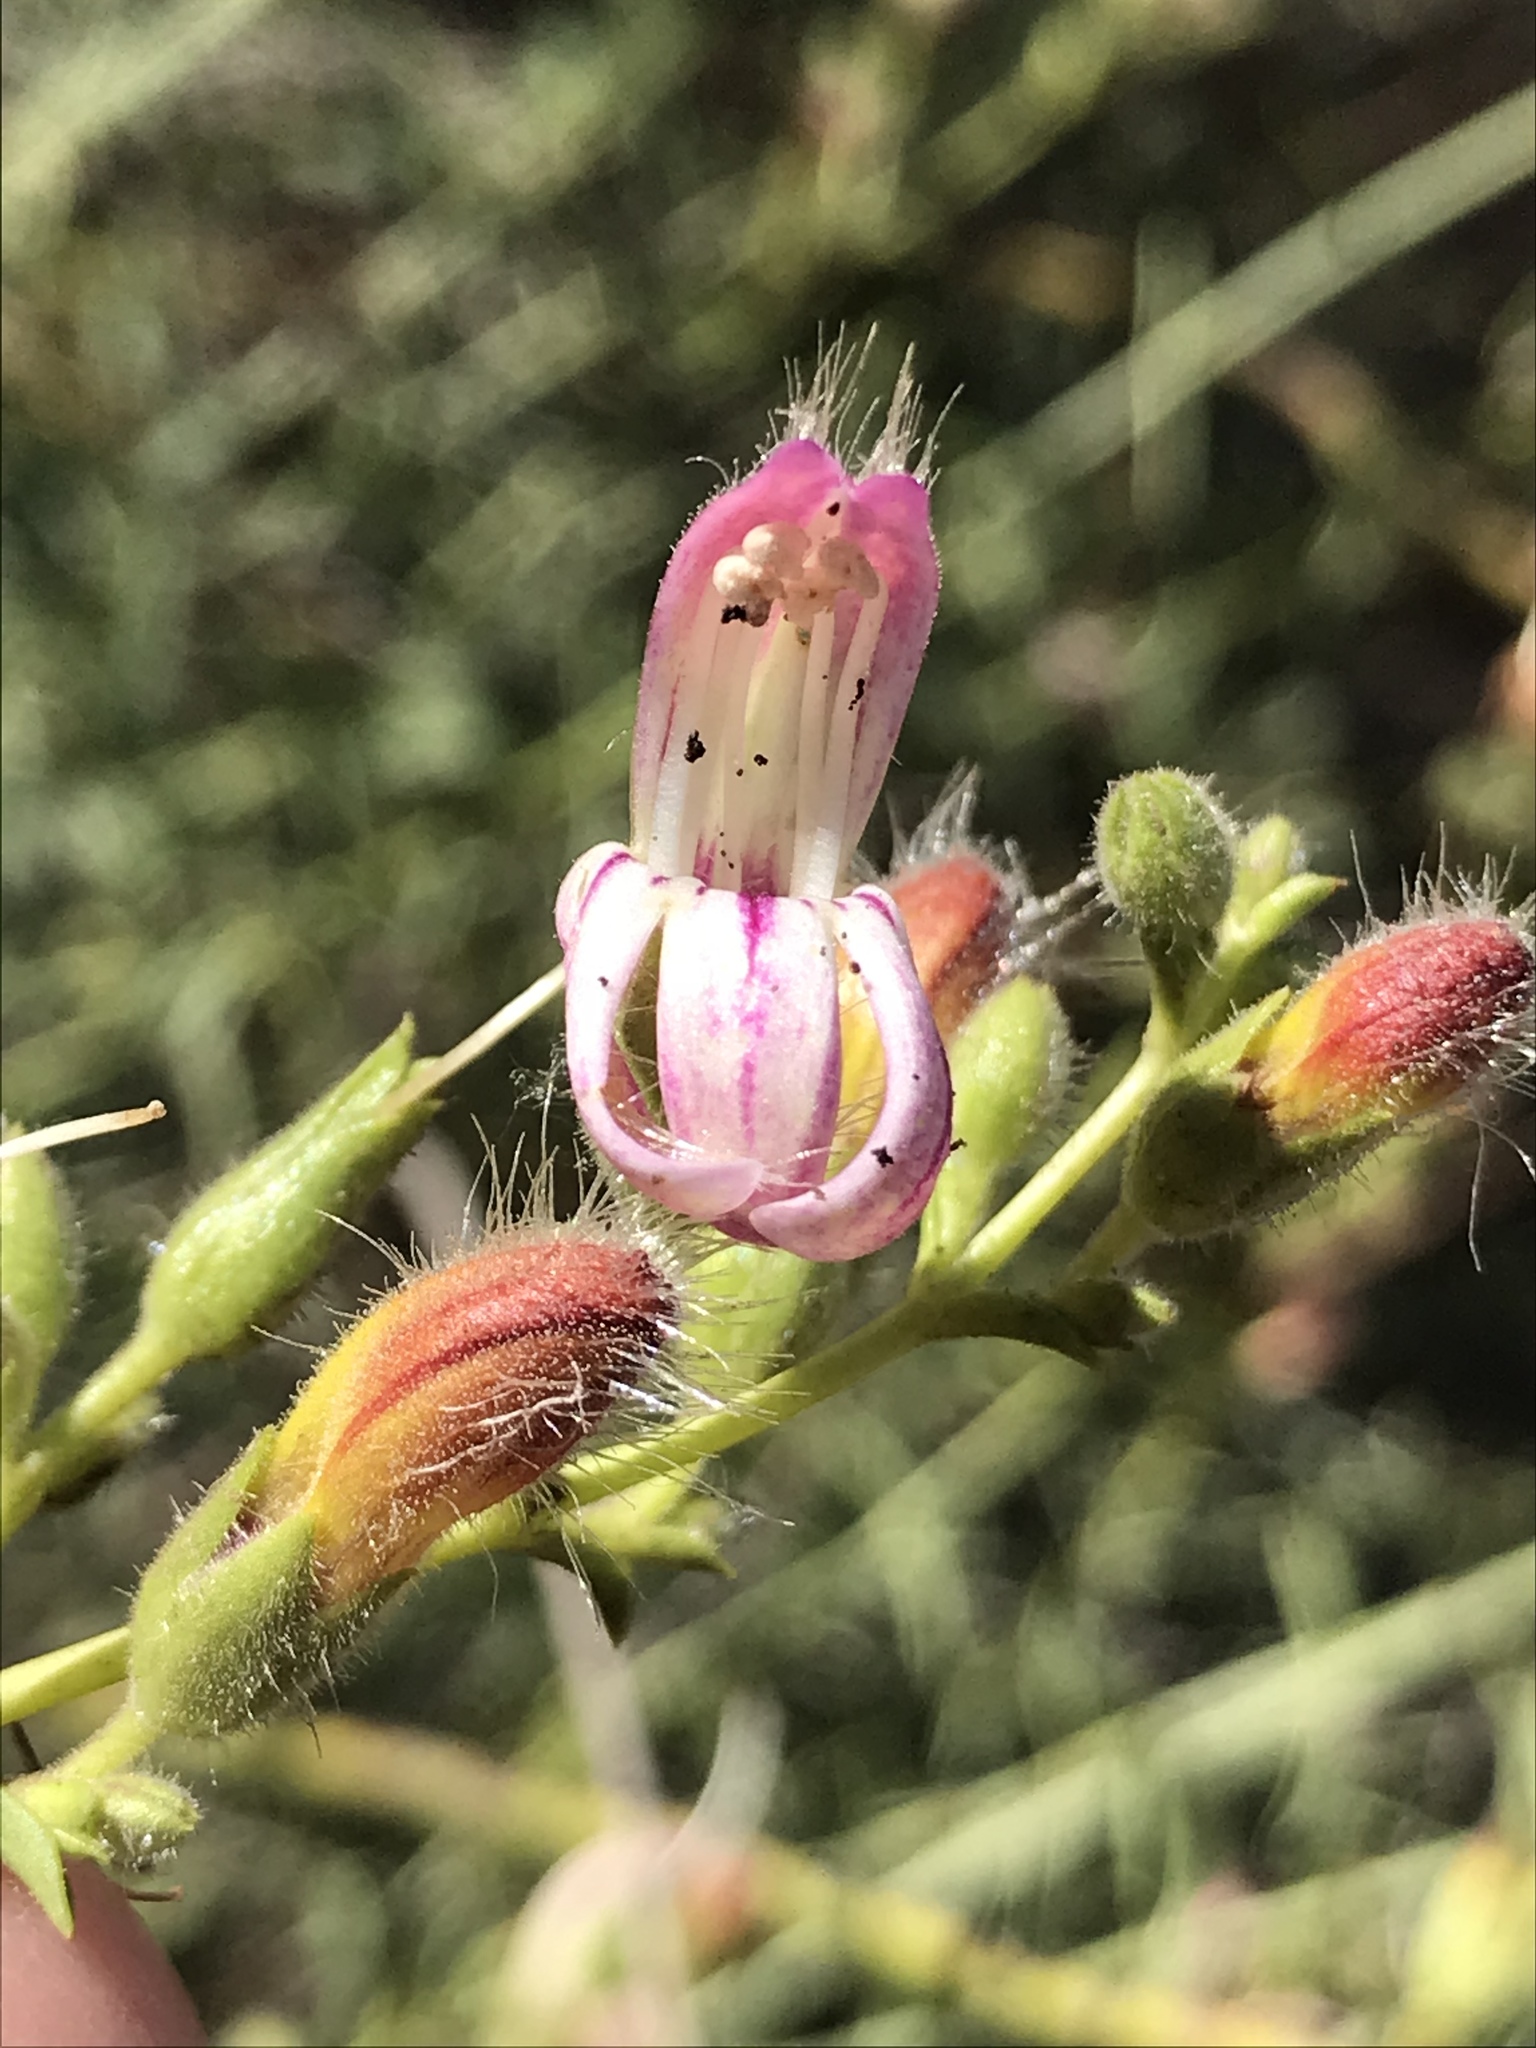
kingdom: Plantae
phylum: Tracheophyta
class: Magnoliopsida
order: Lamiales
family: Plantaginaceae
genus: Keckiella
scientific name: Keckiella breviflora
